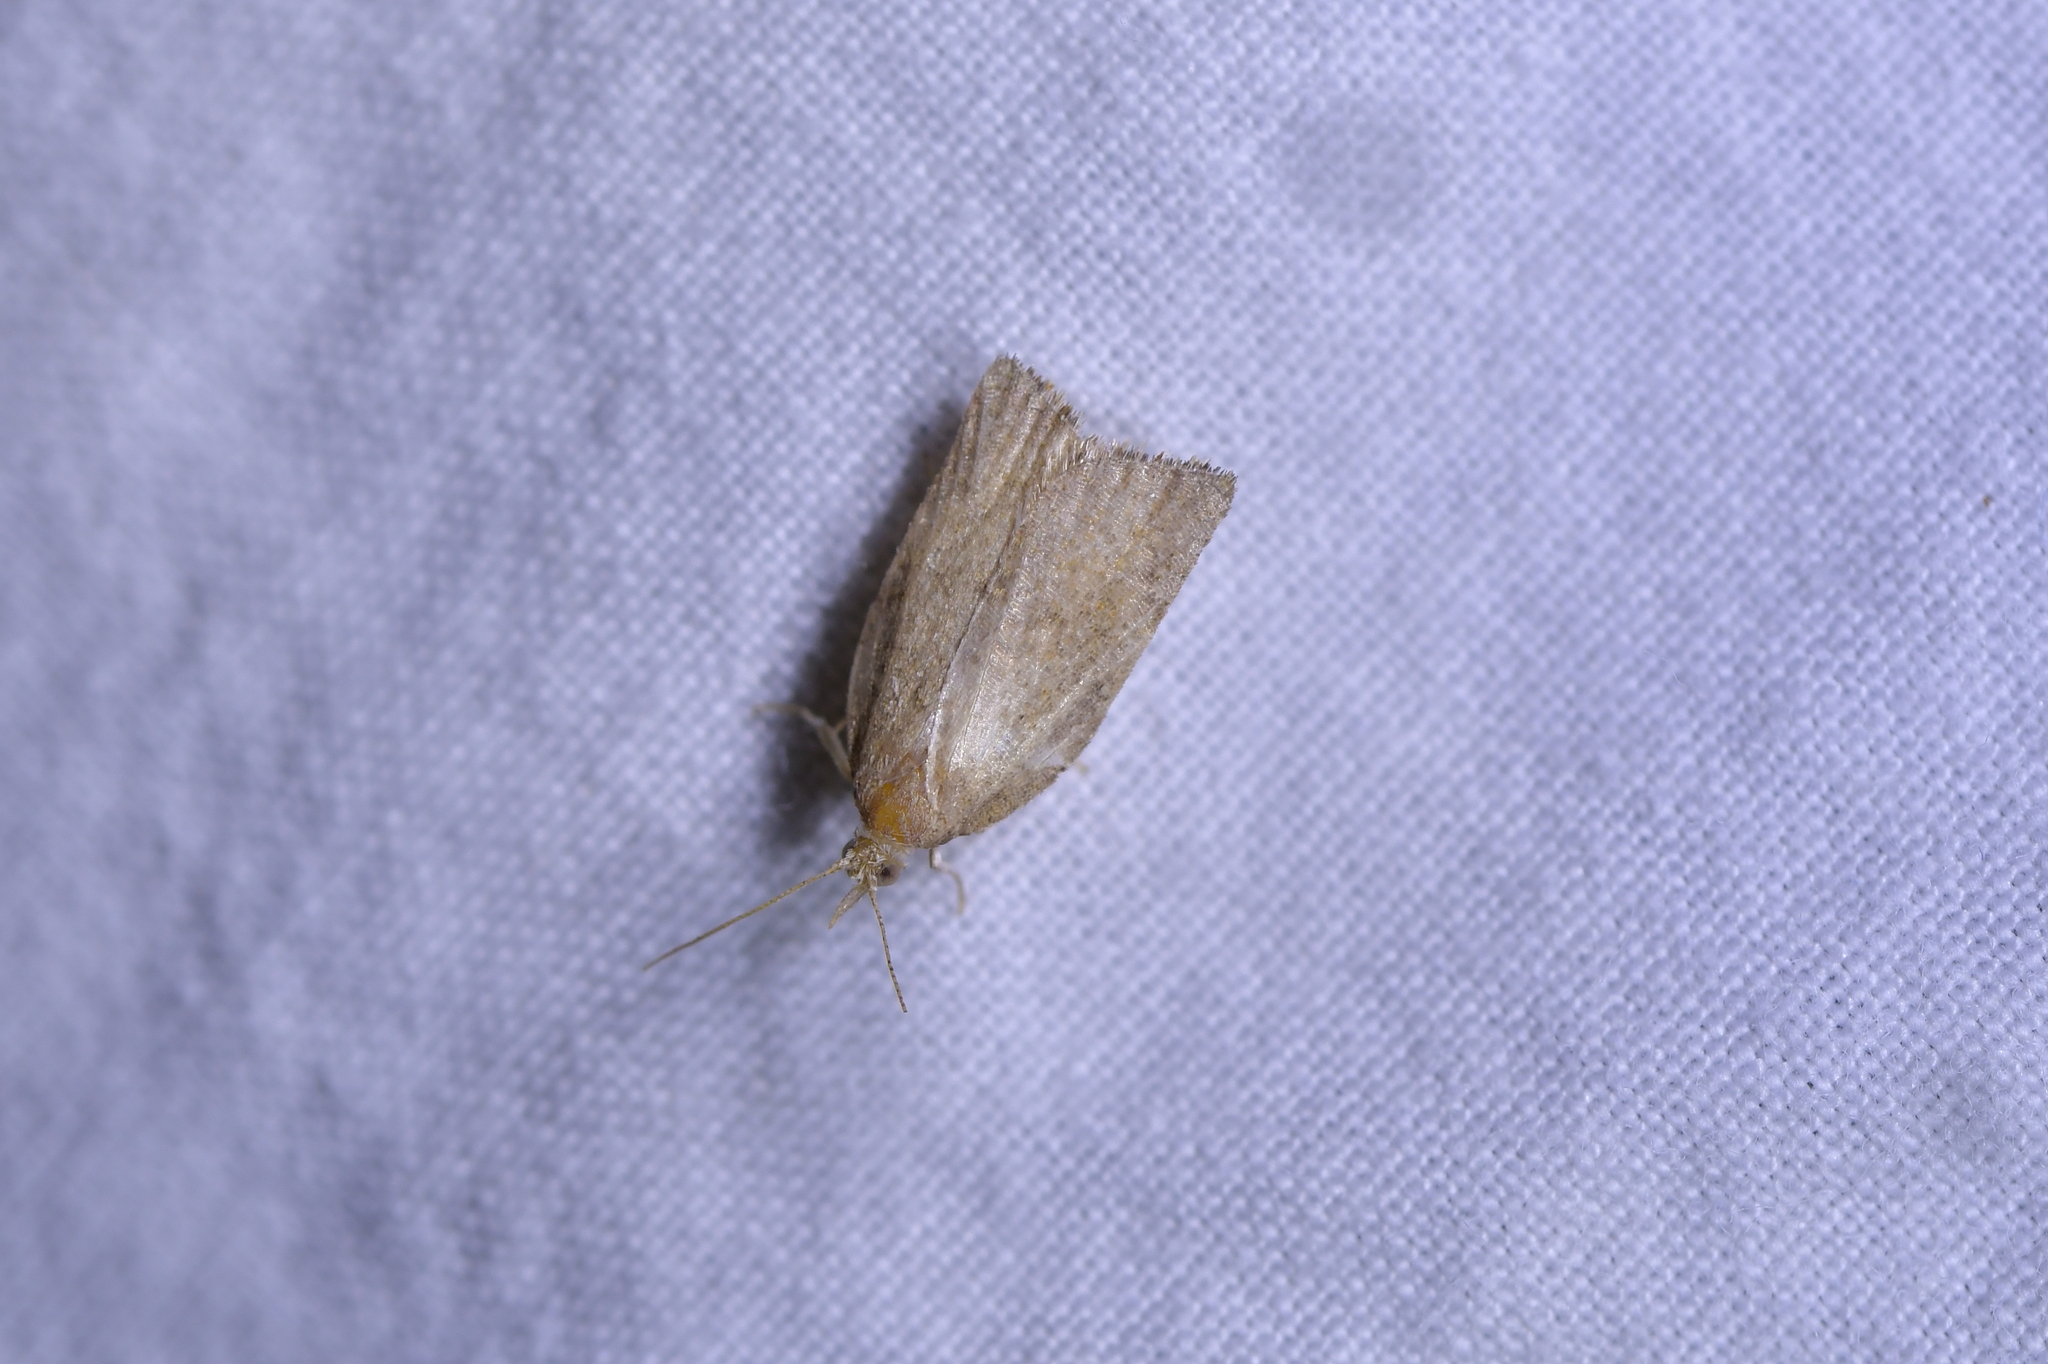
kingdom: Animalia
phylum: Arthropoda
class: Insecta
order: Lepidoptera
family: Tortricidae
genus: Catamacta
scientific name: Catamacta gavisana
